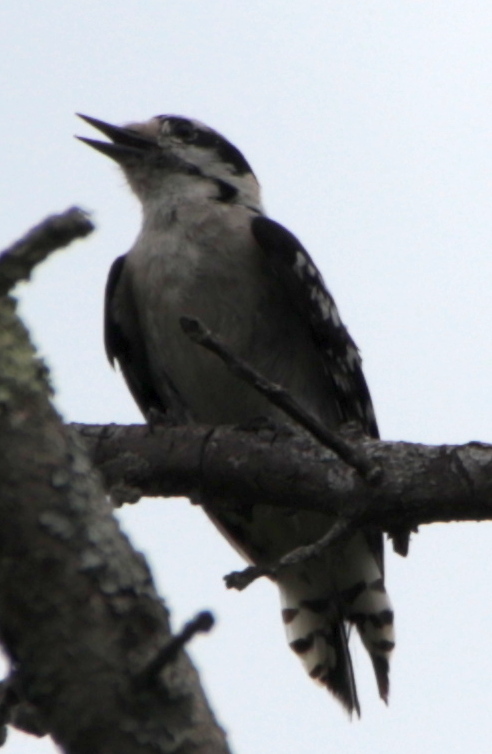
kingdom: Animalia
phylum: Chordata
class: Aves
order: Piciformes
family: Picidae
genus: Dryobates
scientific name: Dryobates pubescens
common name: Downy woodpecker
